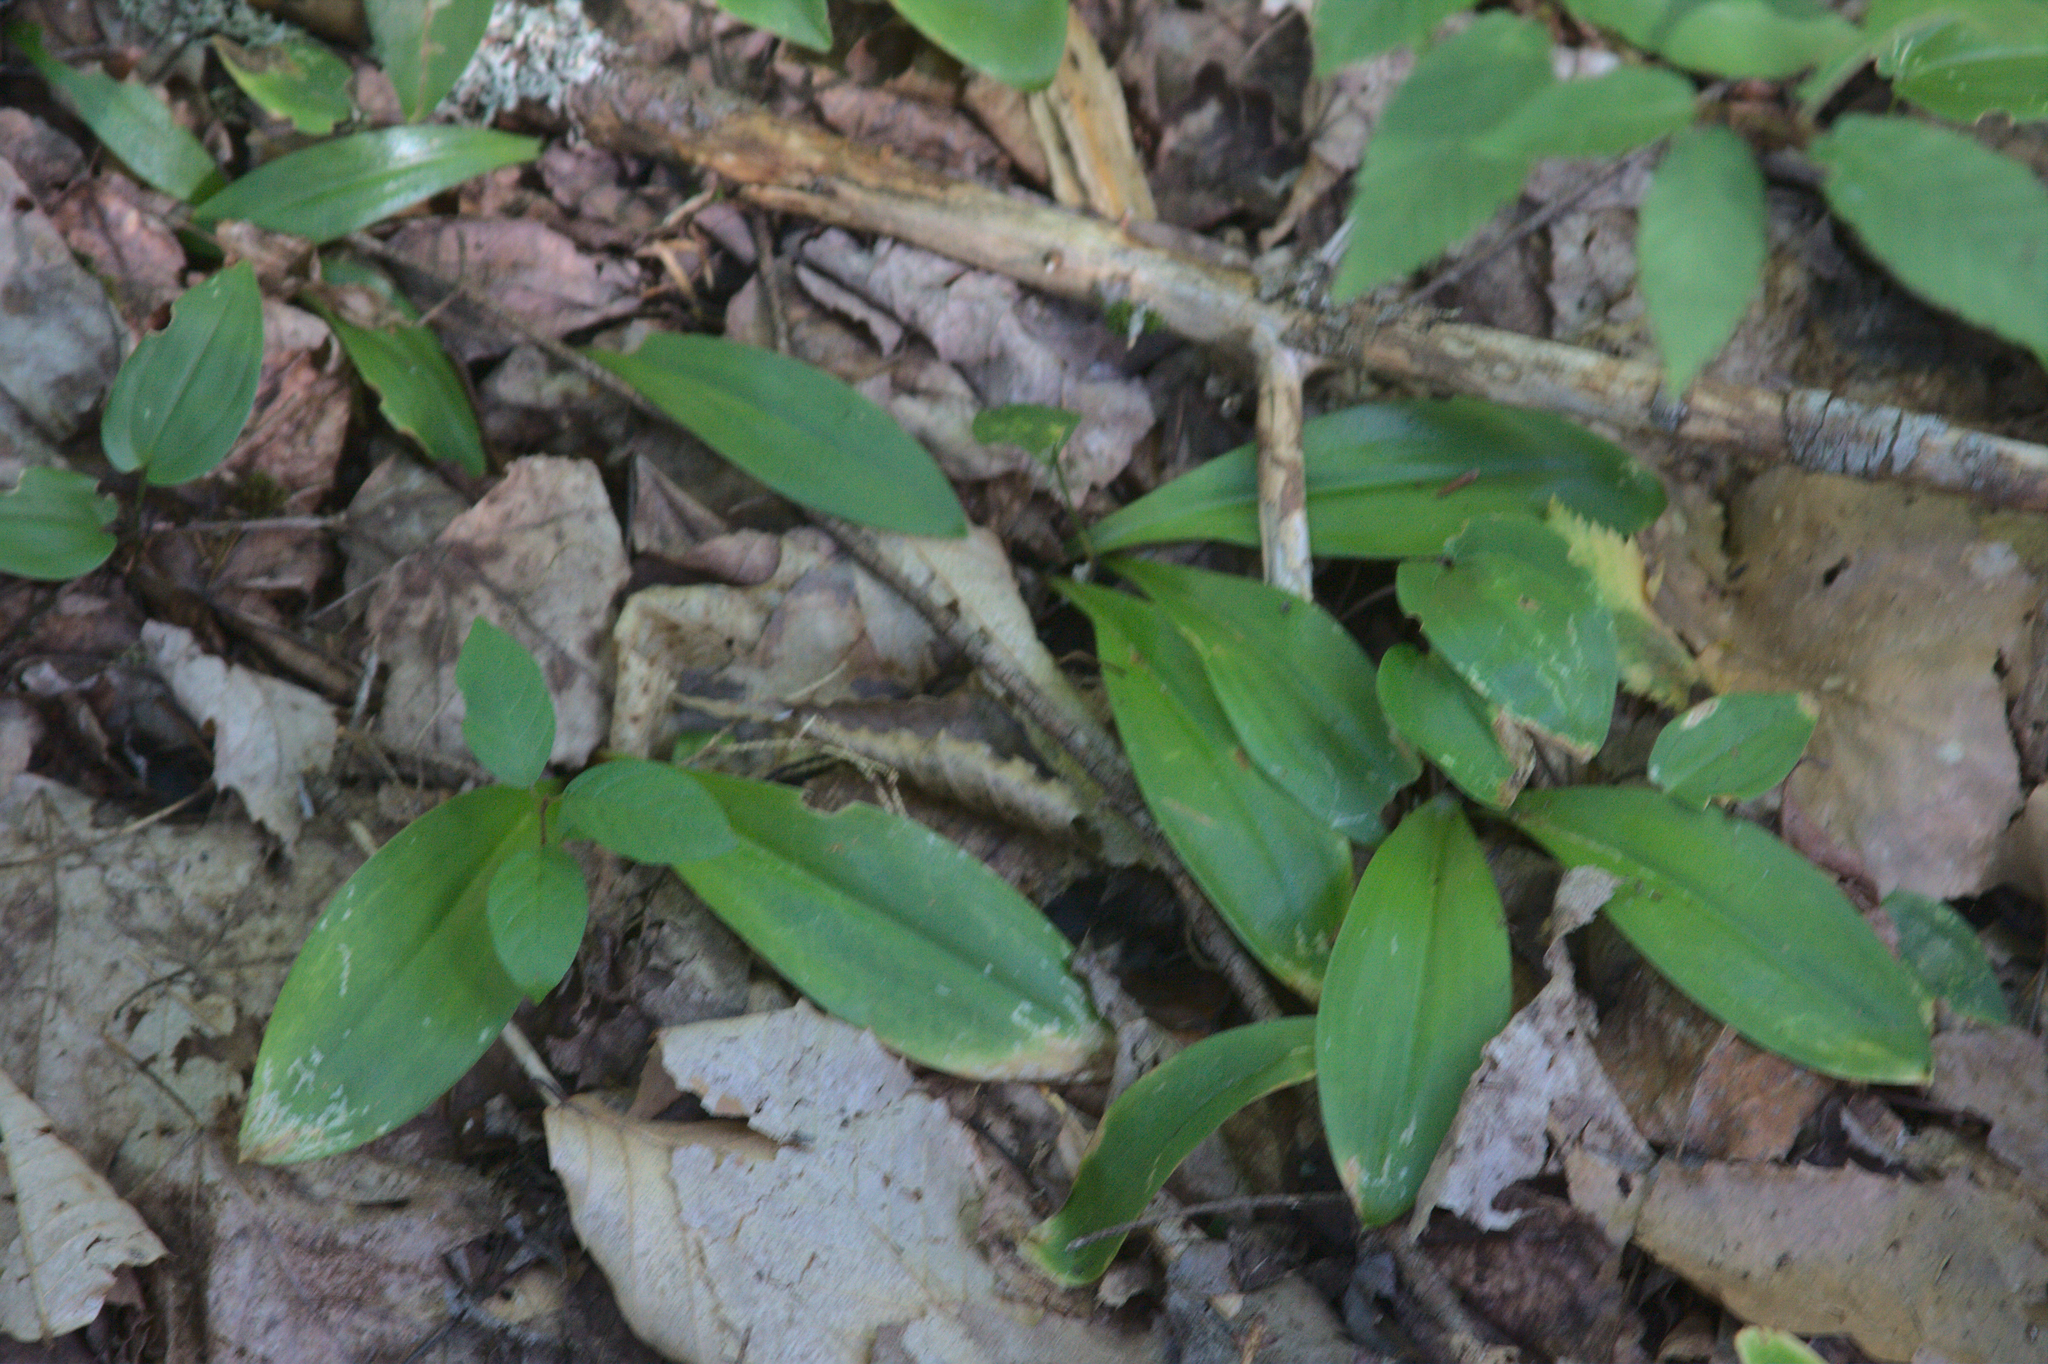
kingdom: Plantae
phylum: Tracheophyta
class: Liliopsida
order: Liliales
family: Liliaceae
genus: Clintonia
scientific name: Clintonia borealis
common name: Yellow clintonia
